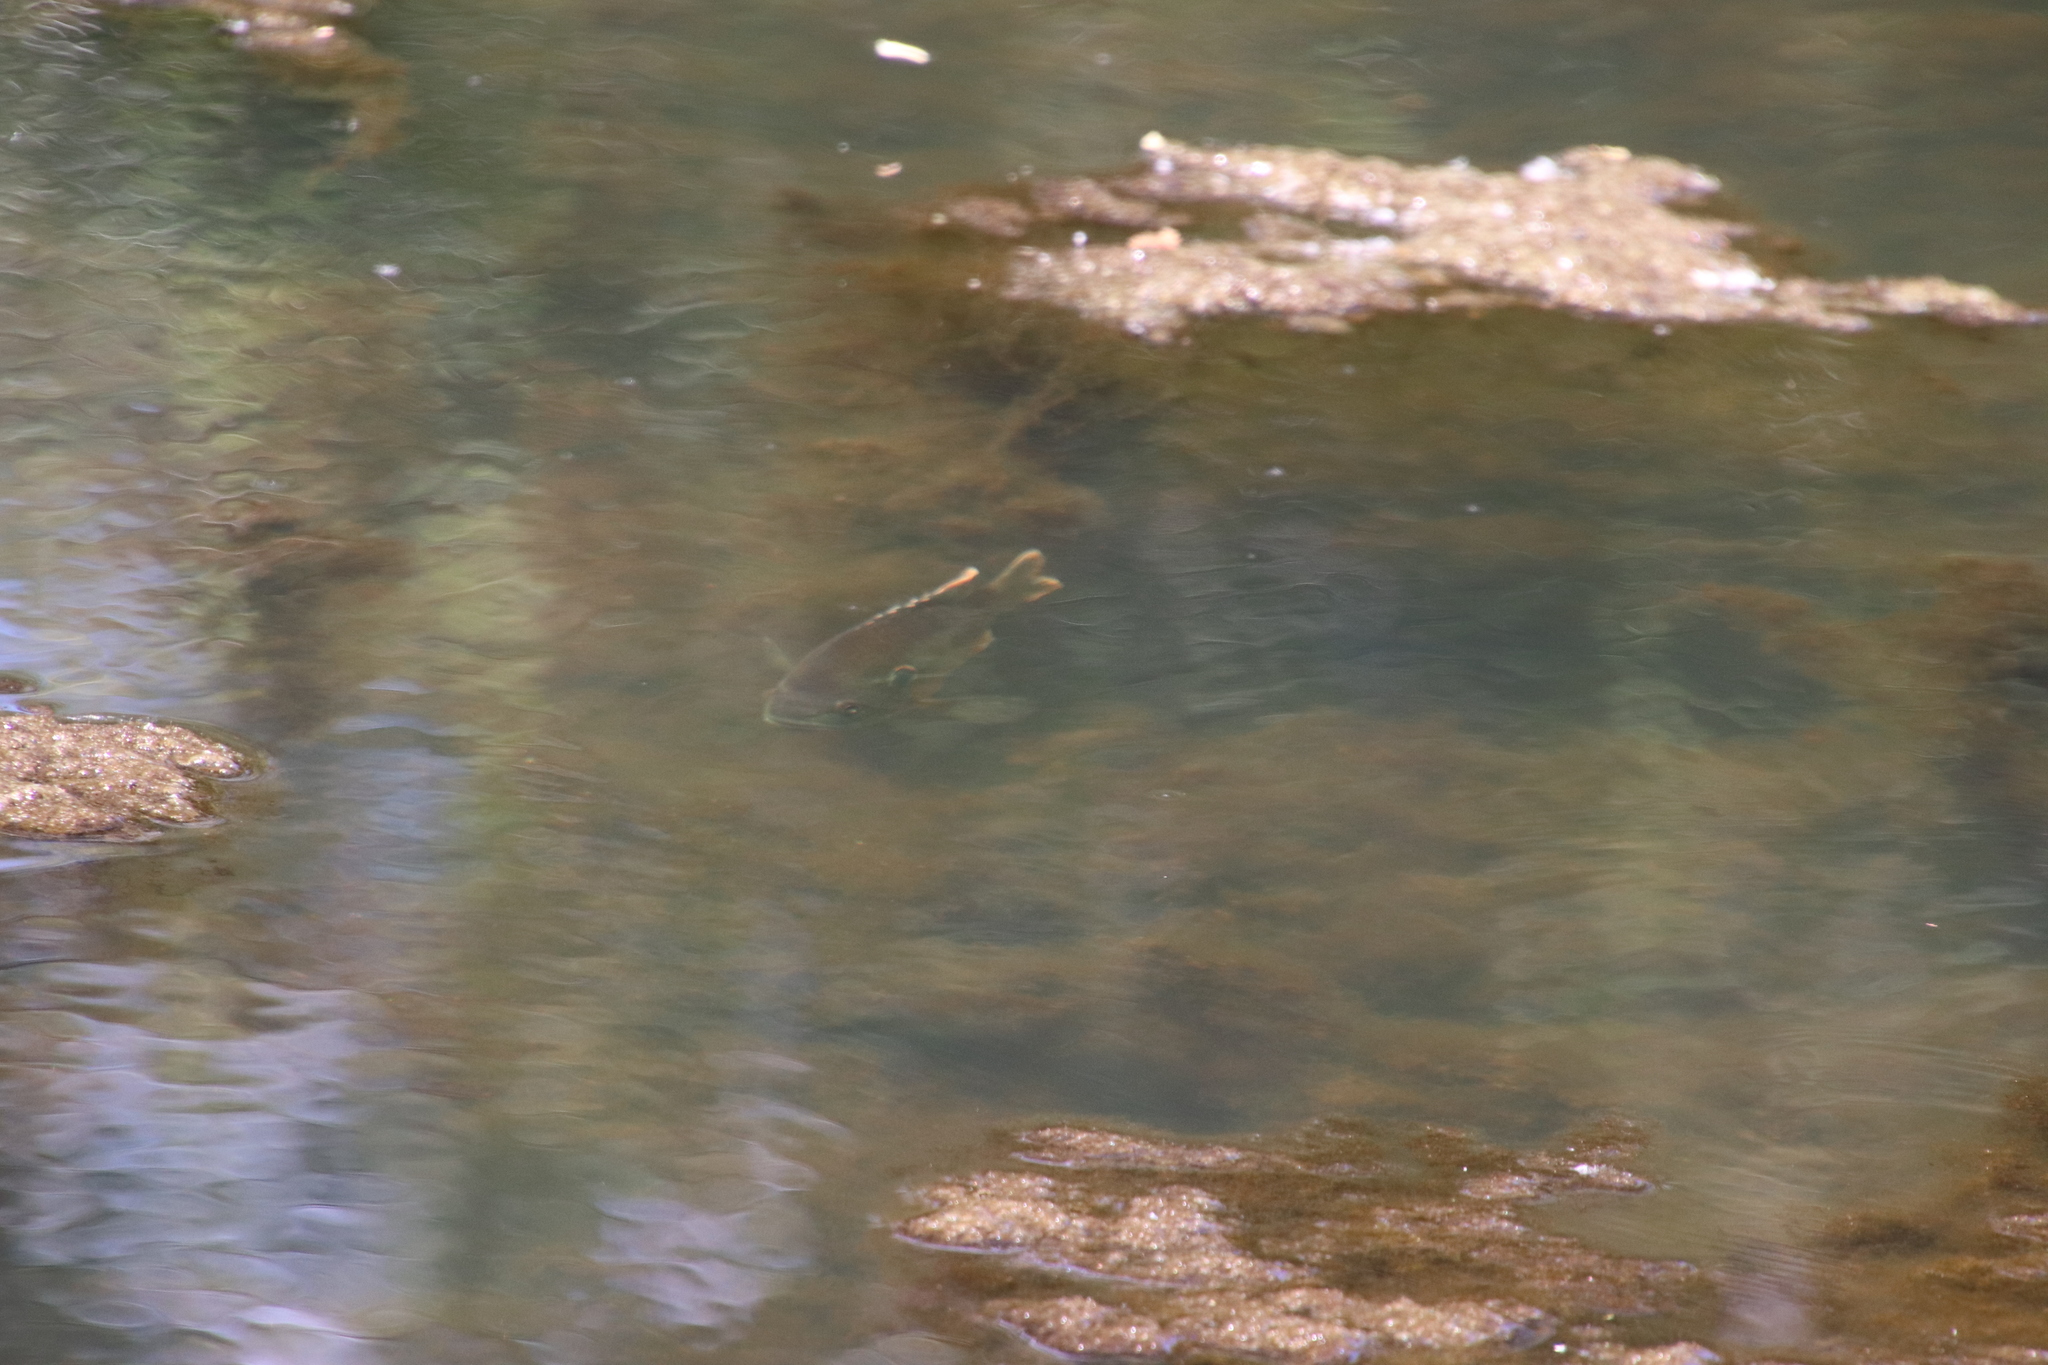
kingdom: Animalia
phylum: Chordata
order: Perciformes
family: Centrarchidae
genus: Lepomis
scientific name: Lepomis cyanellus
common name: Green sunfish
